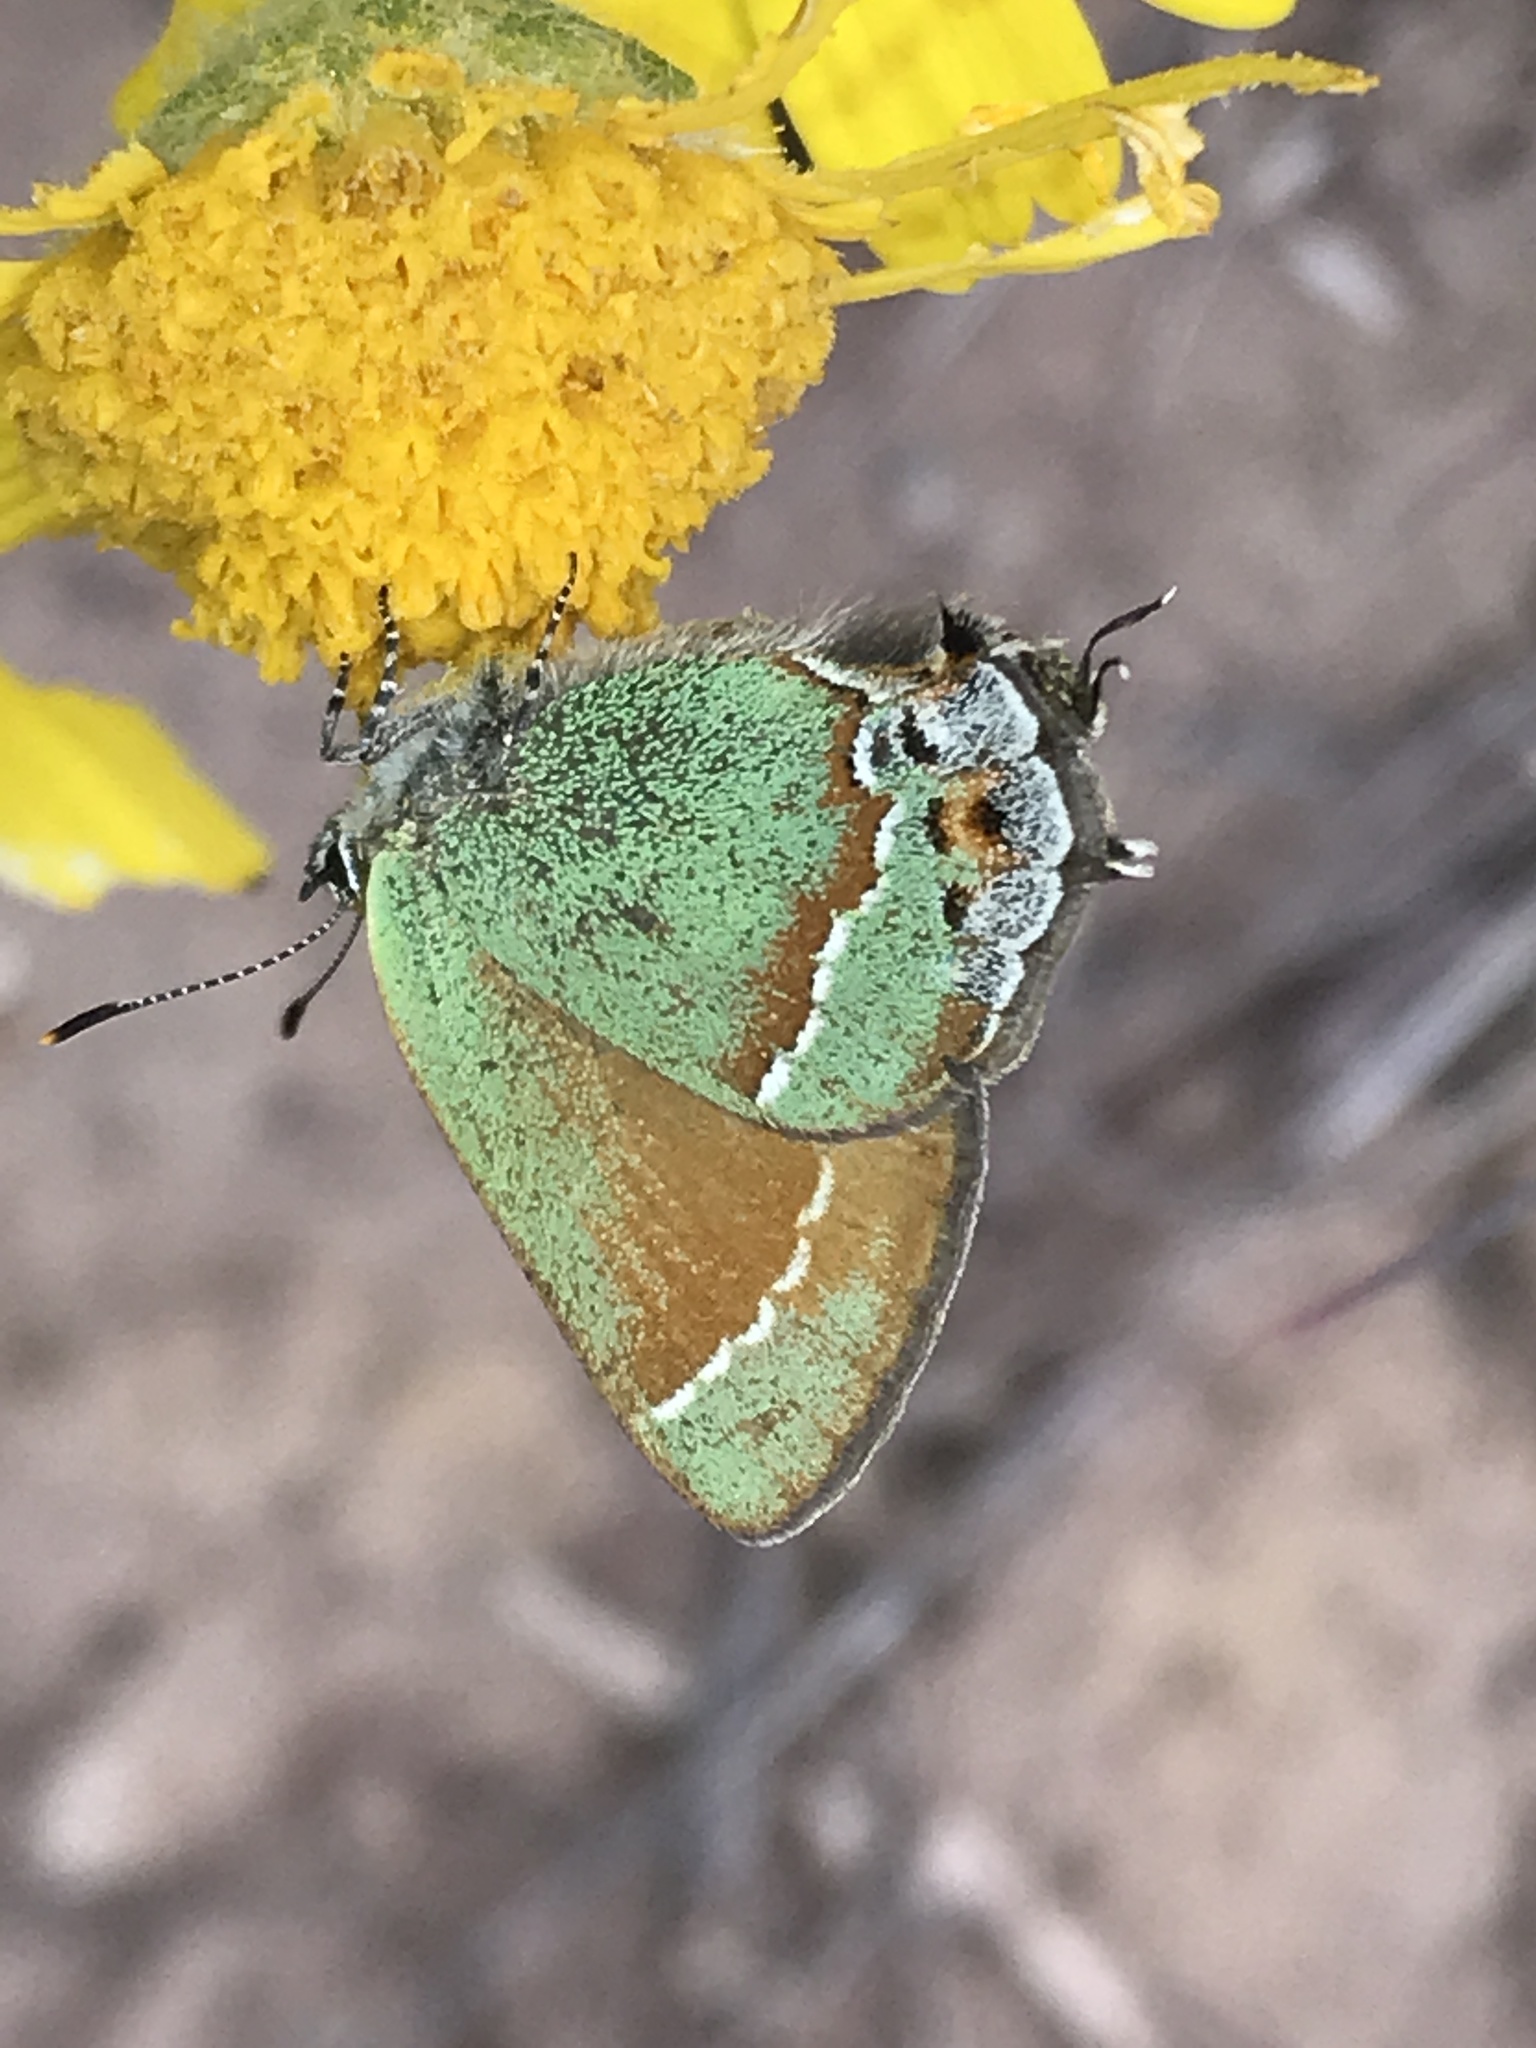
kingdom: Animalia
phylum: Arthropoda
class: Insecta
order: Lepidoptera
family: Lycaenidae
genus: Mitoura
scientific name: Mitoura siva
